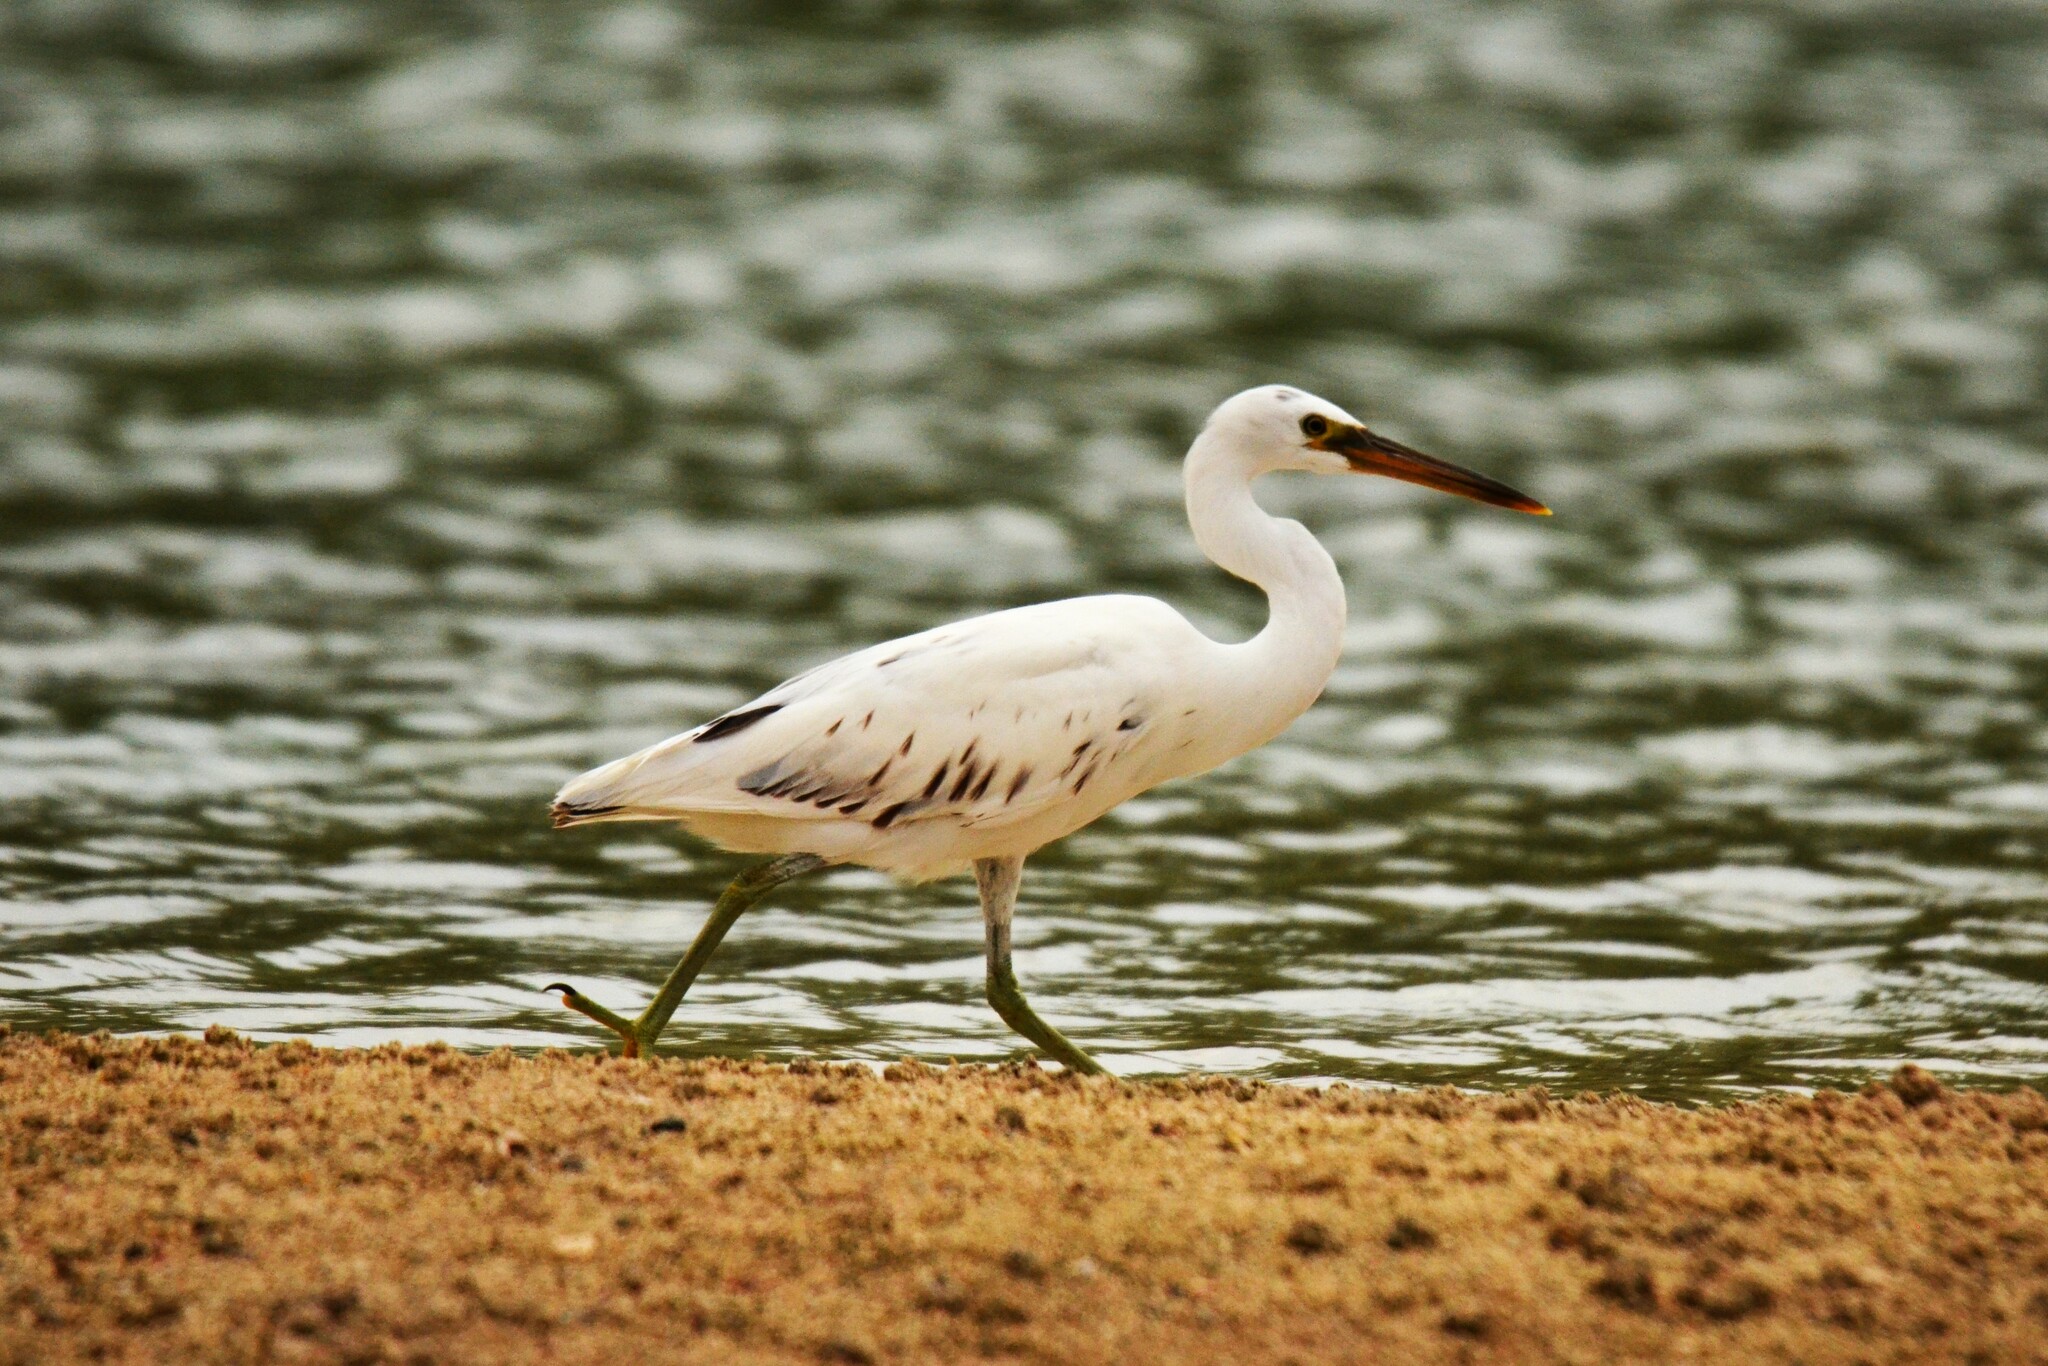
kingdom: Animalia
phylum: Chordata
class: Aves
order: Pelecaniformes
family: Ardeidae
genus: Egretta
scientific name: Egretta sacra
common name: Pacific reef heron
